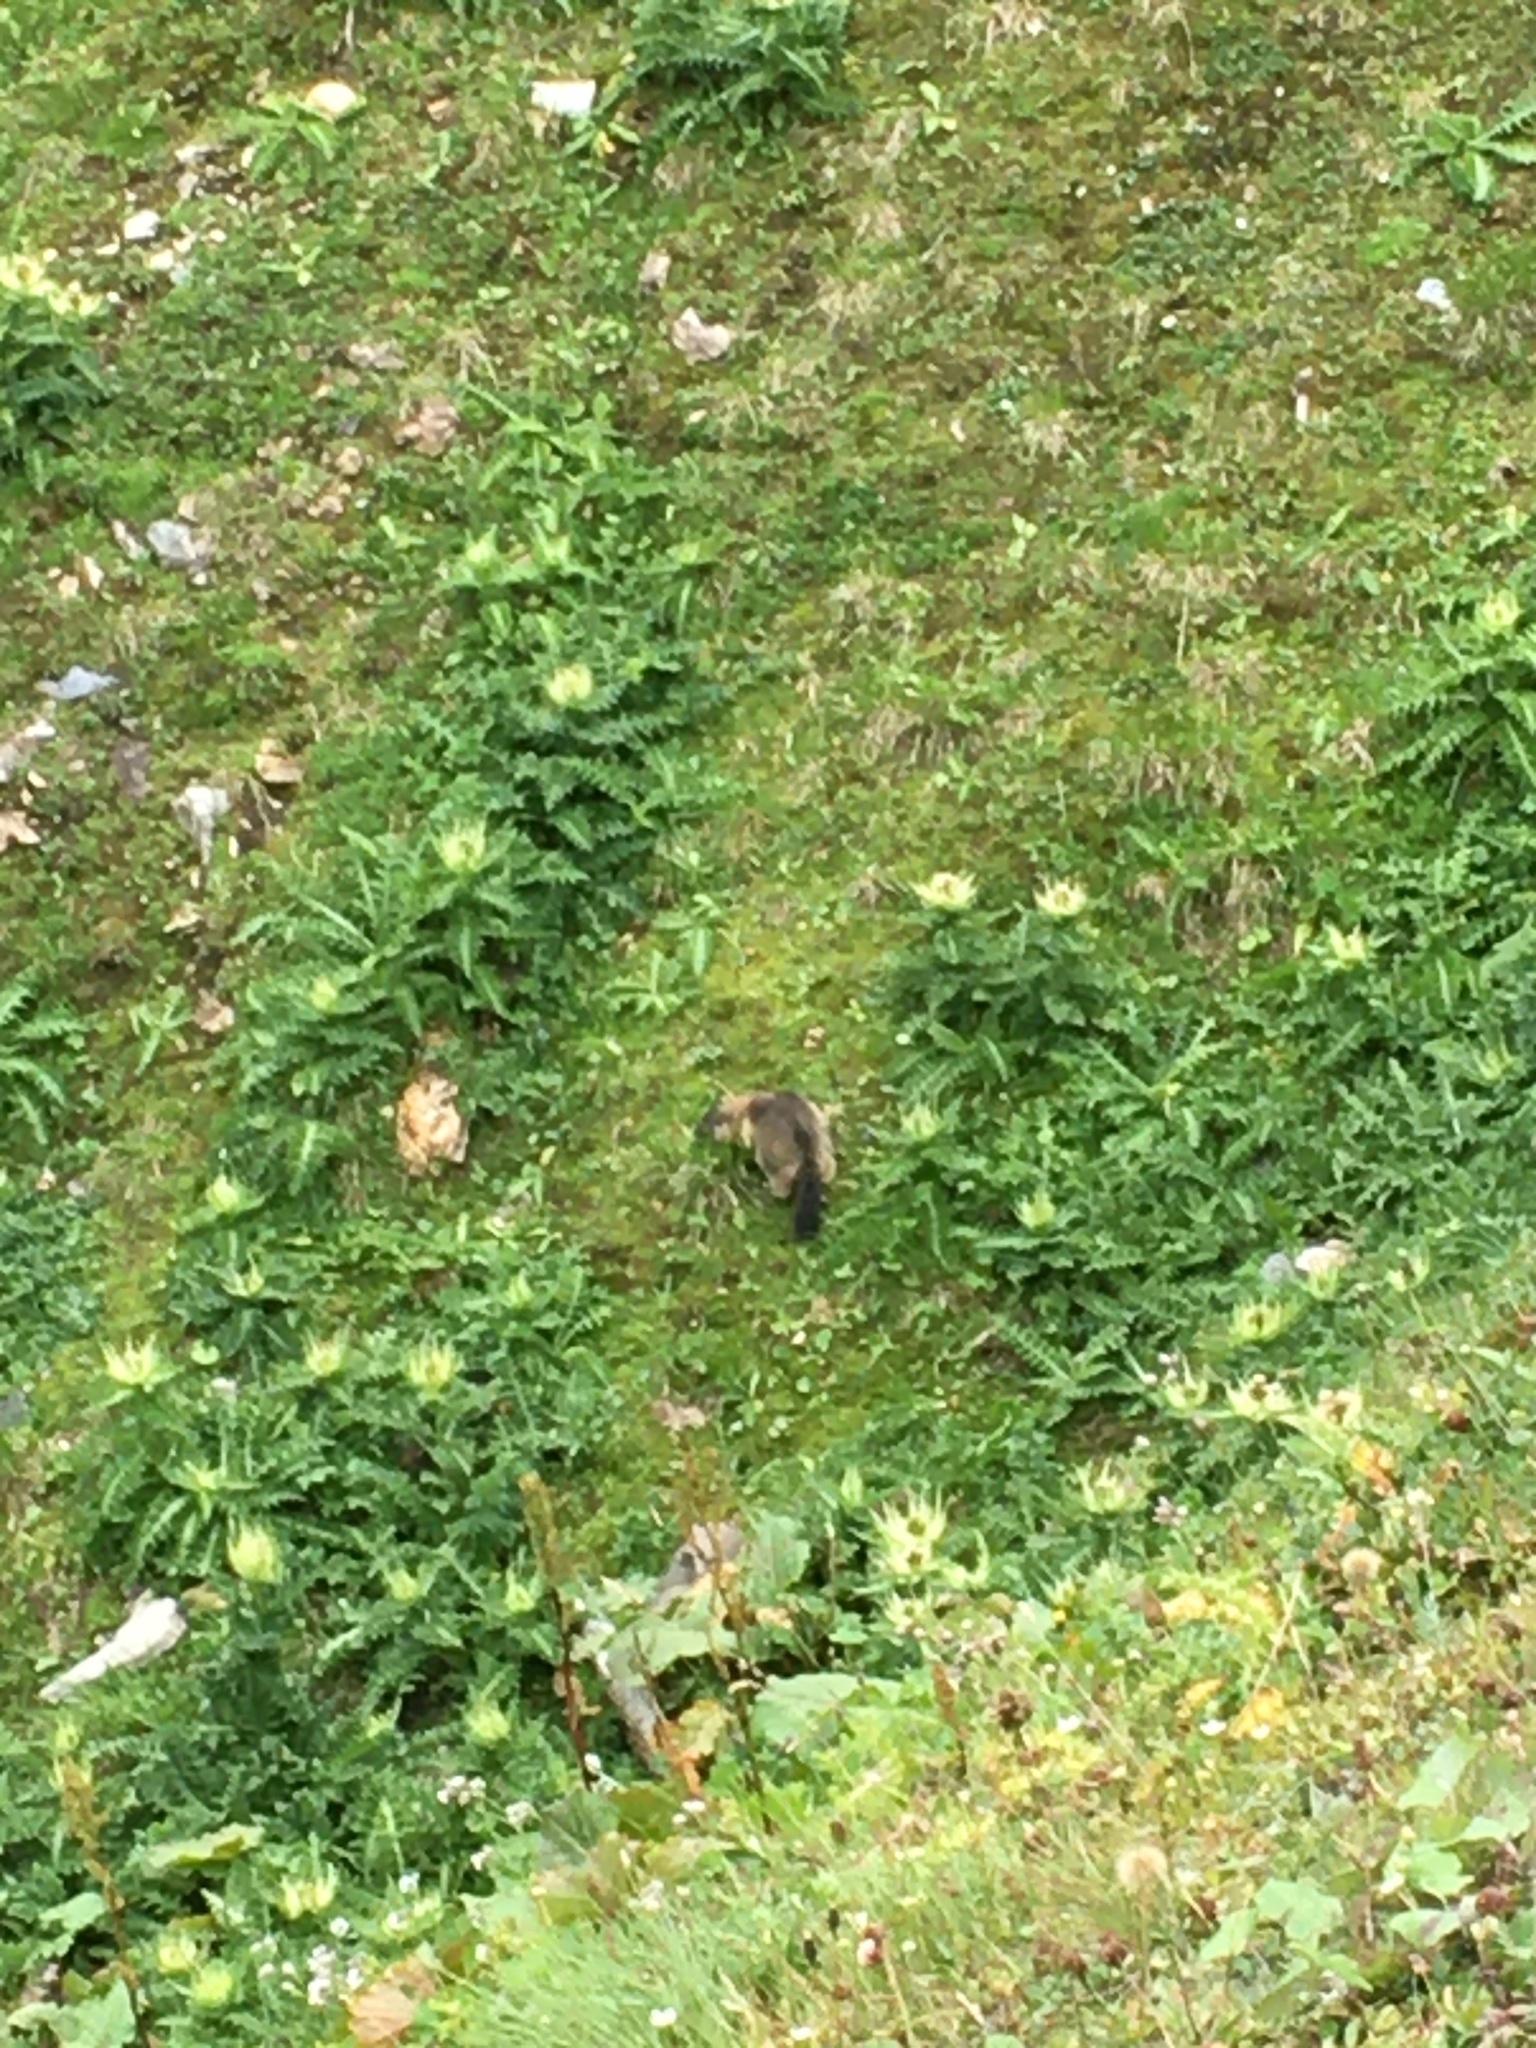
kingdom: Animalia
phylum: Chordata
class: Mammalia
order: Rodentia
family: Sciuridae
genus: Marmota
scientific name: Marmota marmota
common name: Alpine marmot
